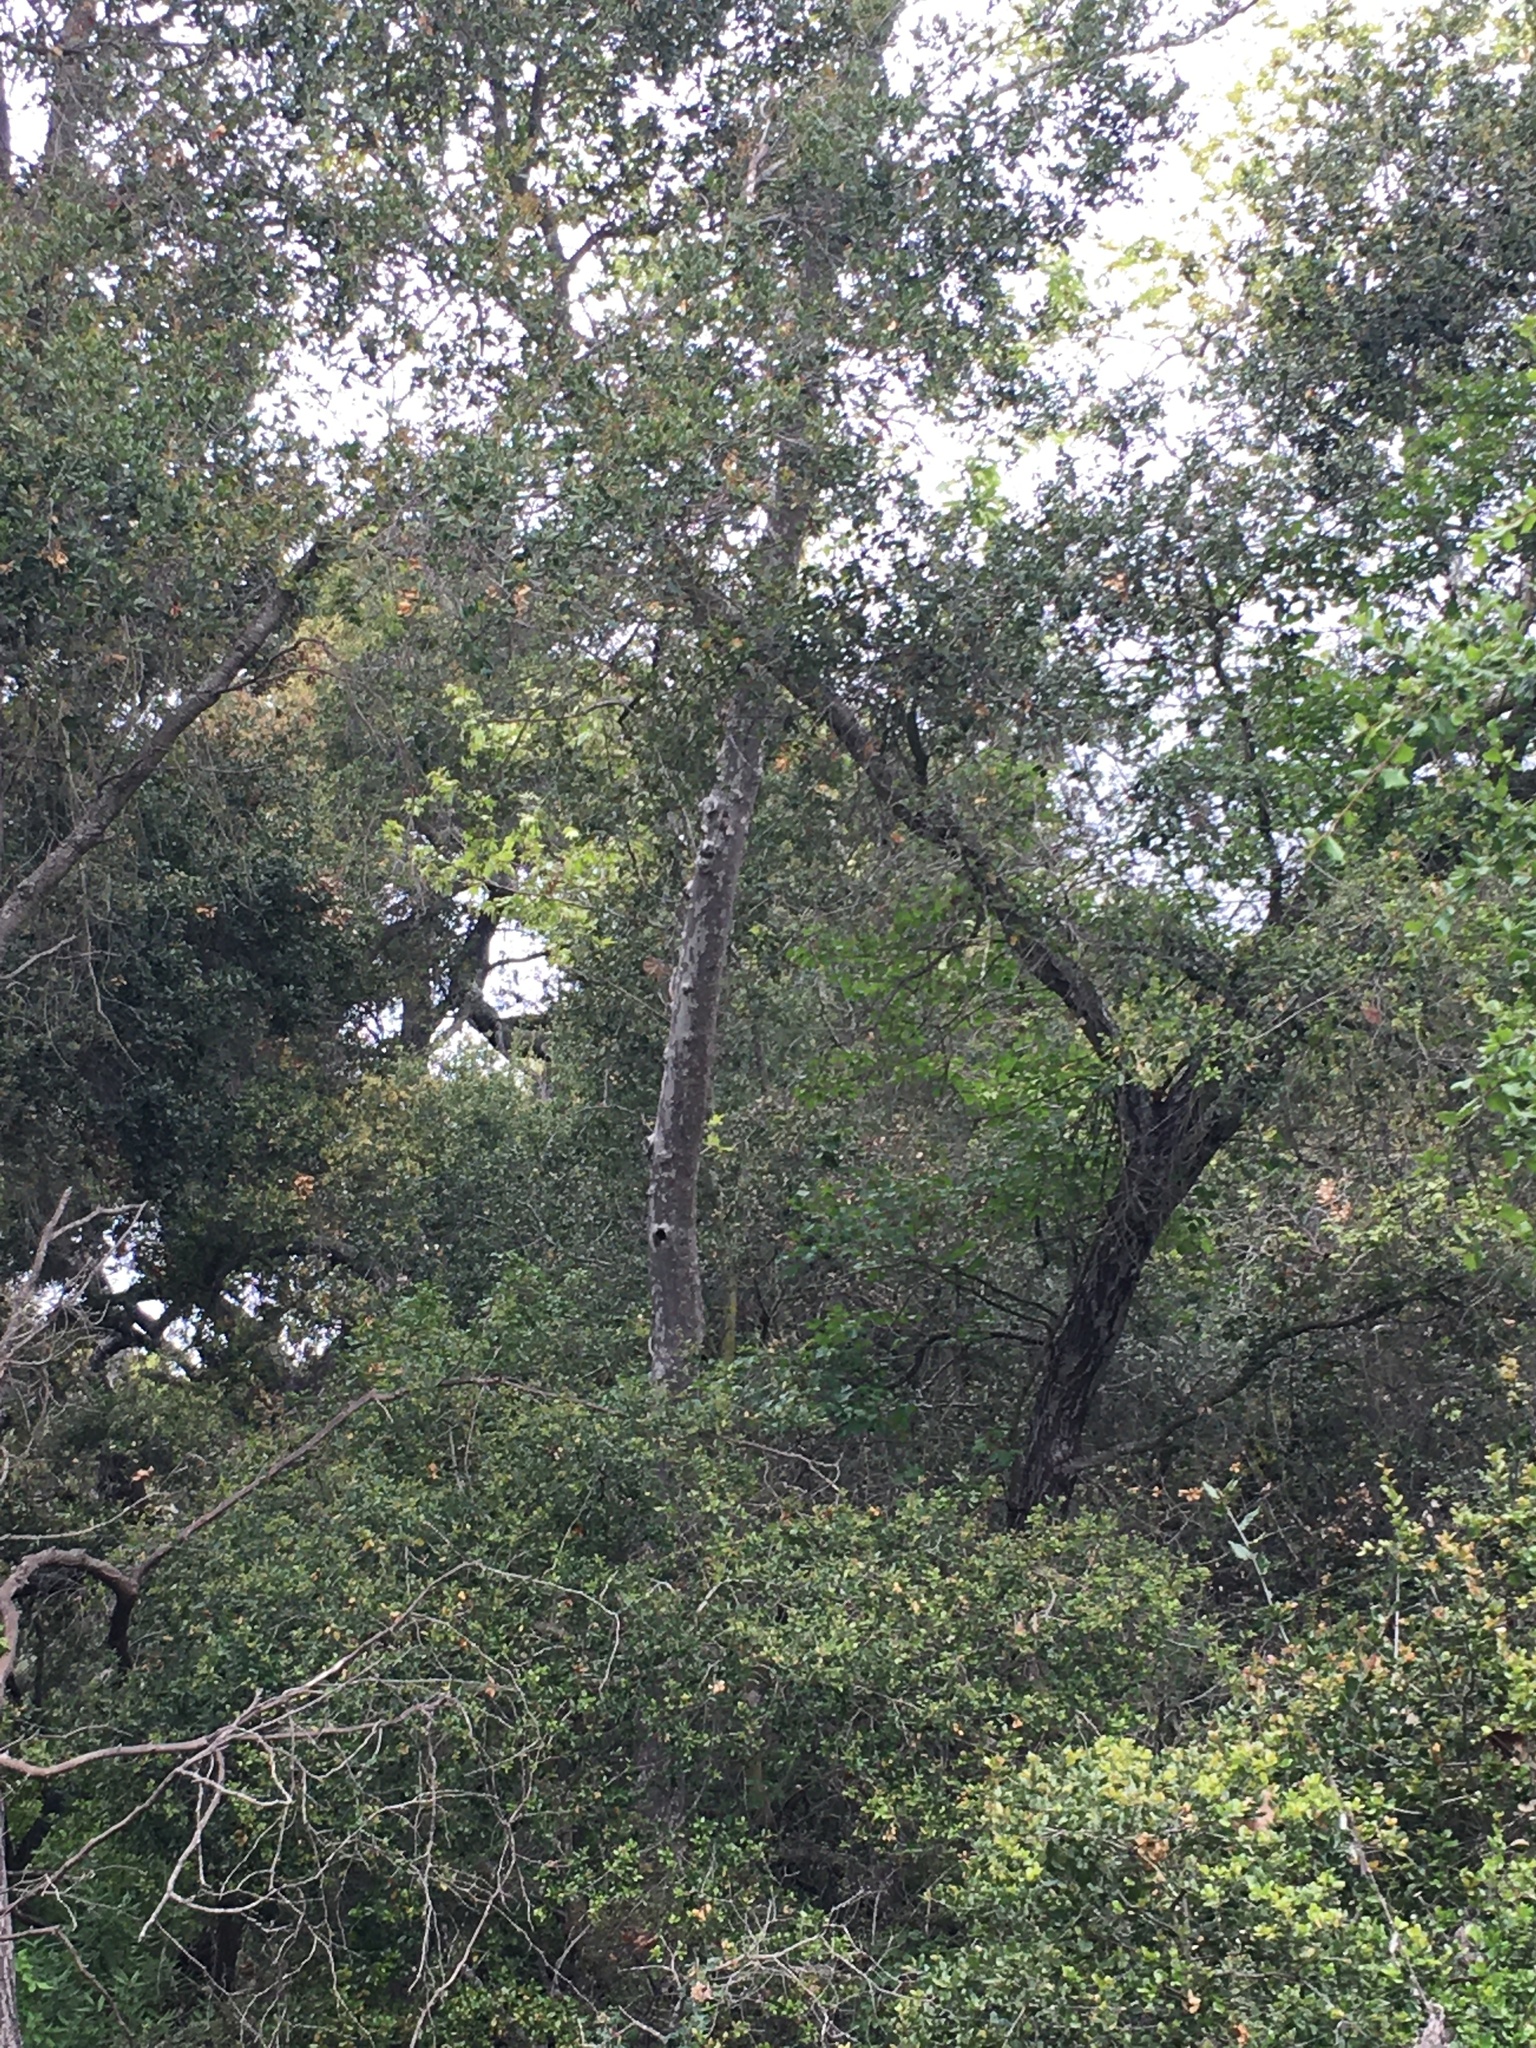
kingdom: Plantae
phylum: Tracheophyta
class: Magnoliopsida
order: Fagales
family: Fagaceae
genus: Quercus
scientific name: Quercus agrifolia
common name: California live oak
